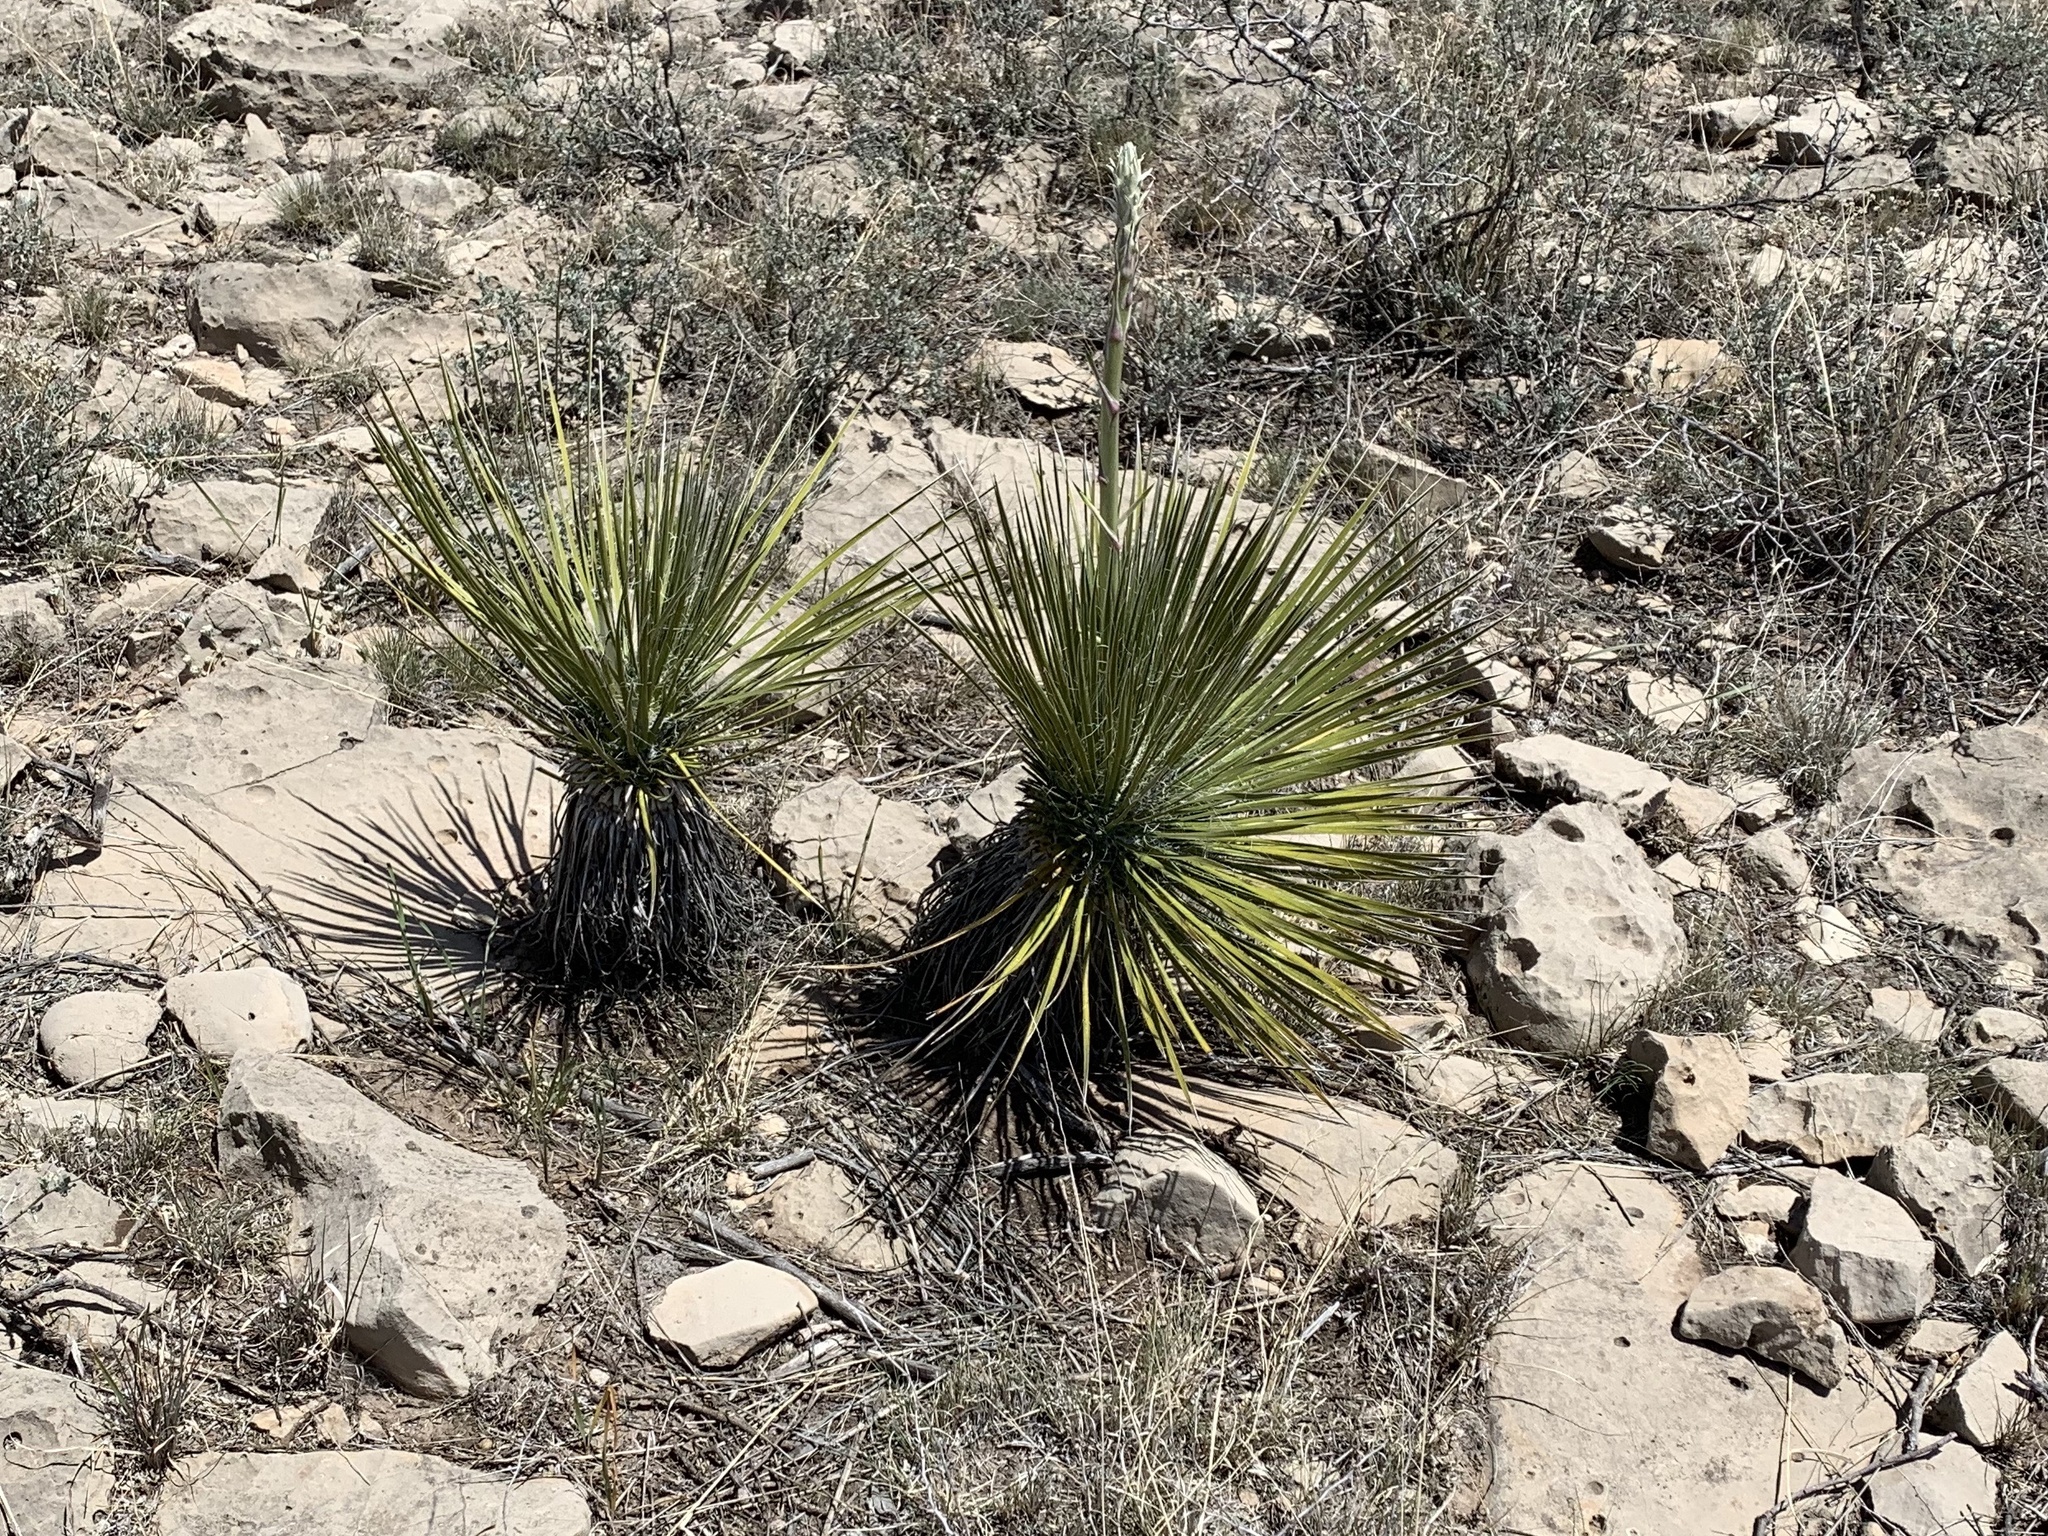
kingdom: Plantae
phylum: Tracheophyta
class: Liliopsida
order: Asparagales
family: Asparagaceae
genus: Yucca
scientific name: Yucca elata
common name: Palmella
